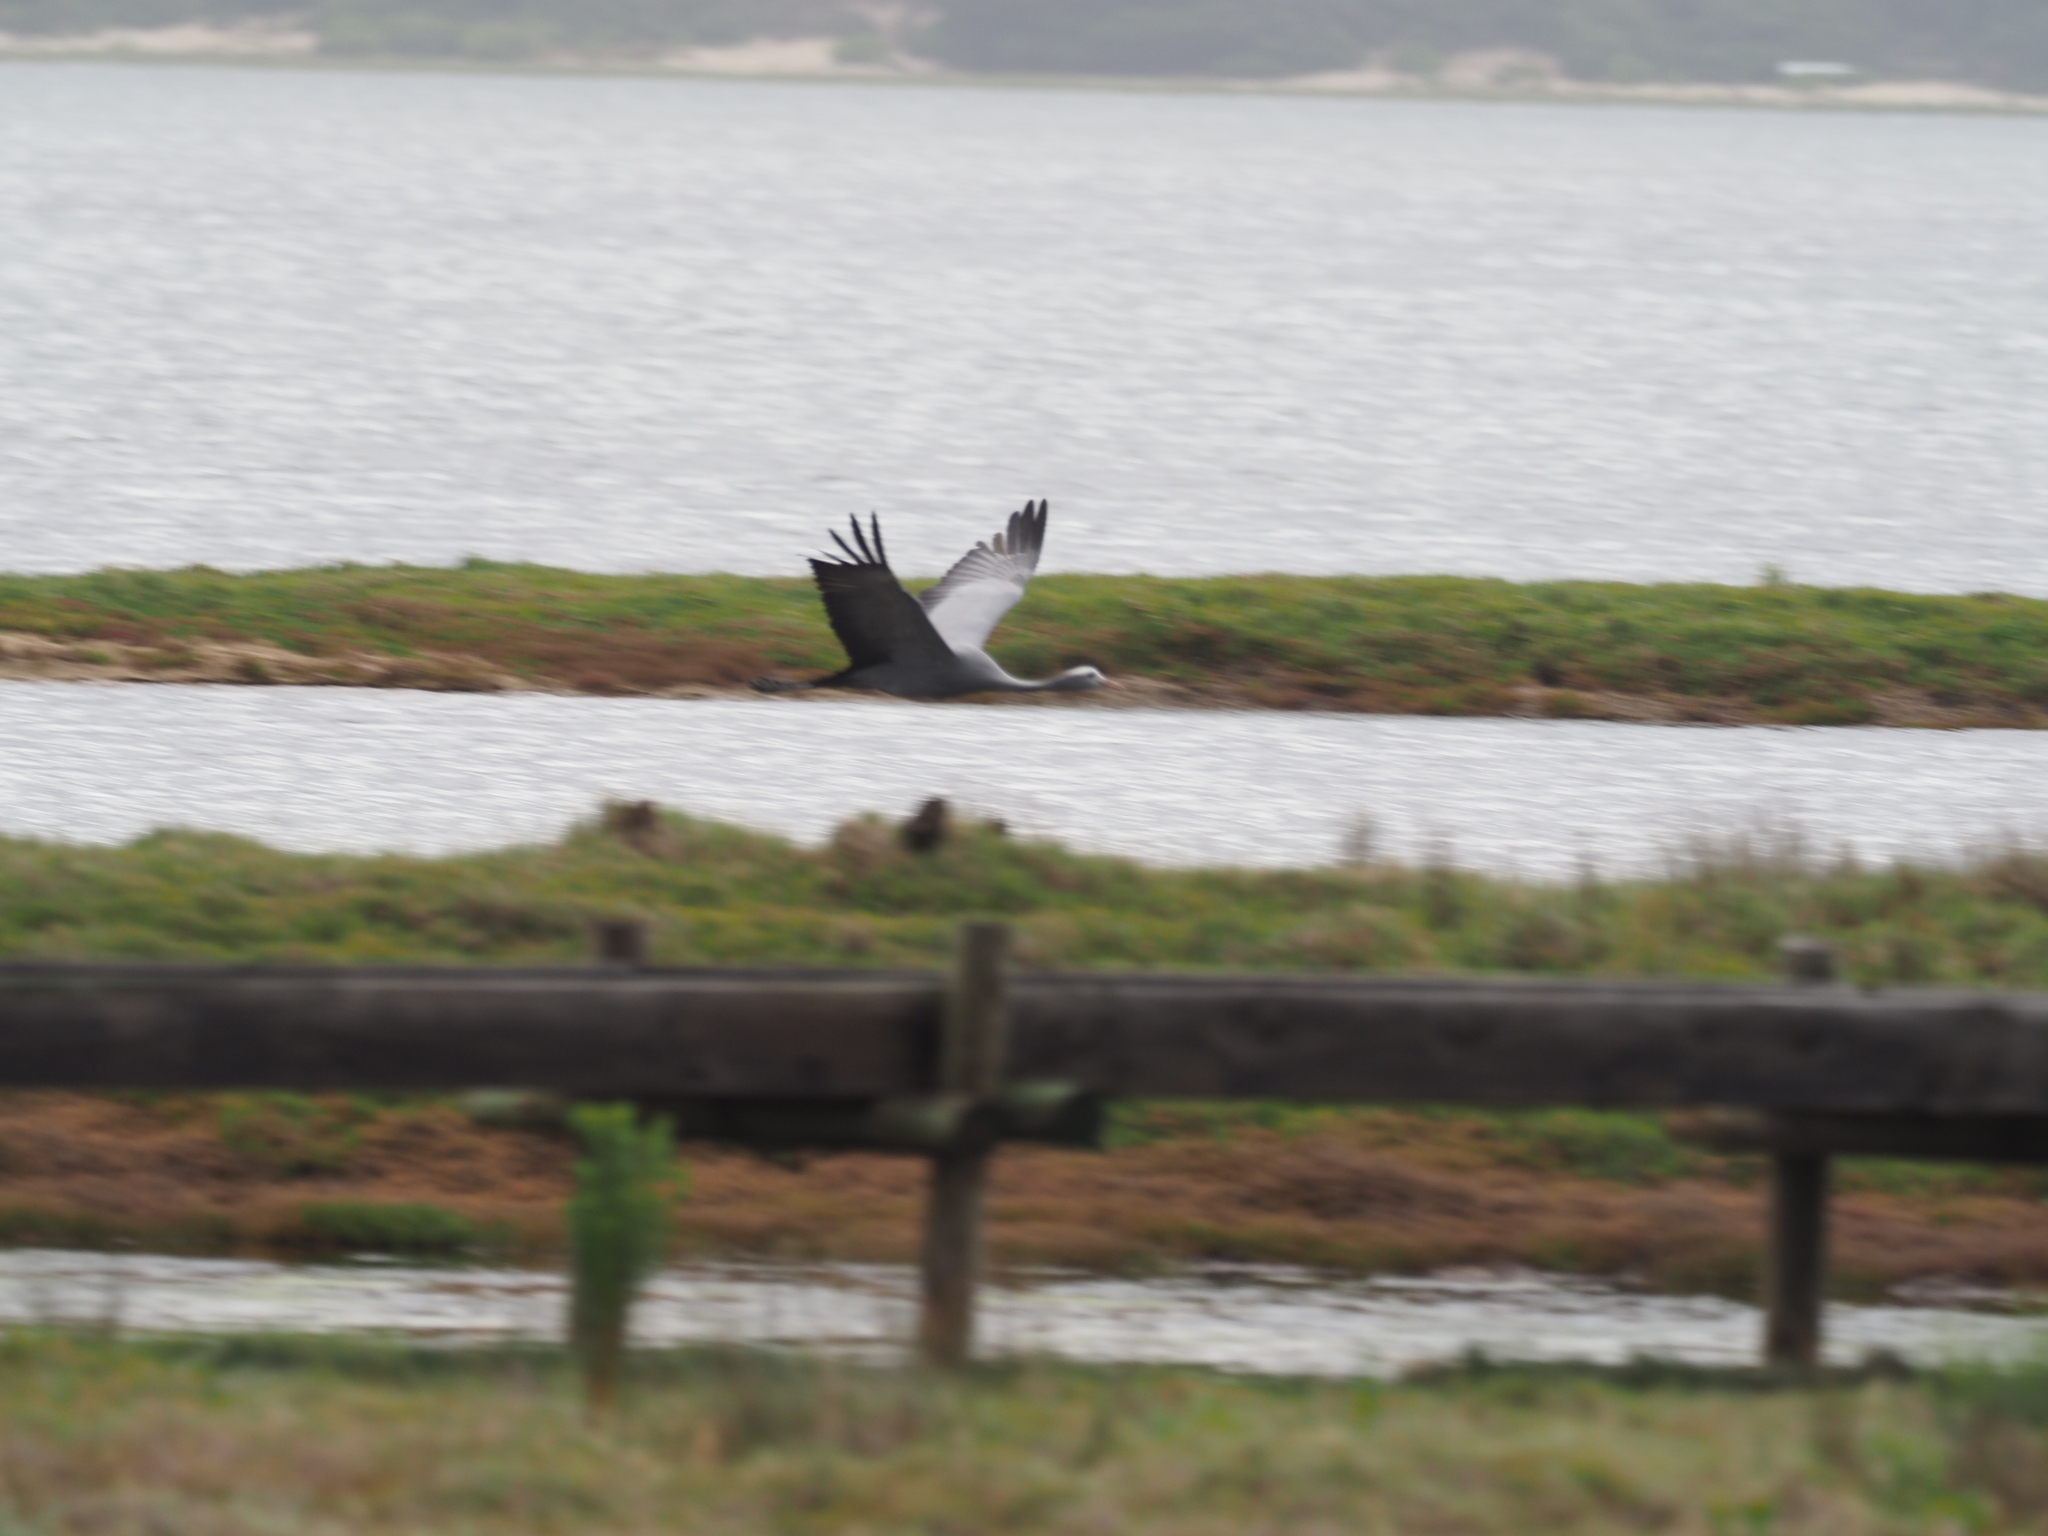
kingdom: Animalia
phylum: Chordata
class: Aves
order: Gruiformes
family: Gruidae
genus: Anthropoides
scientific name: Anthropoides paradiseus
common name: Blue crane
